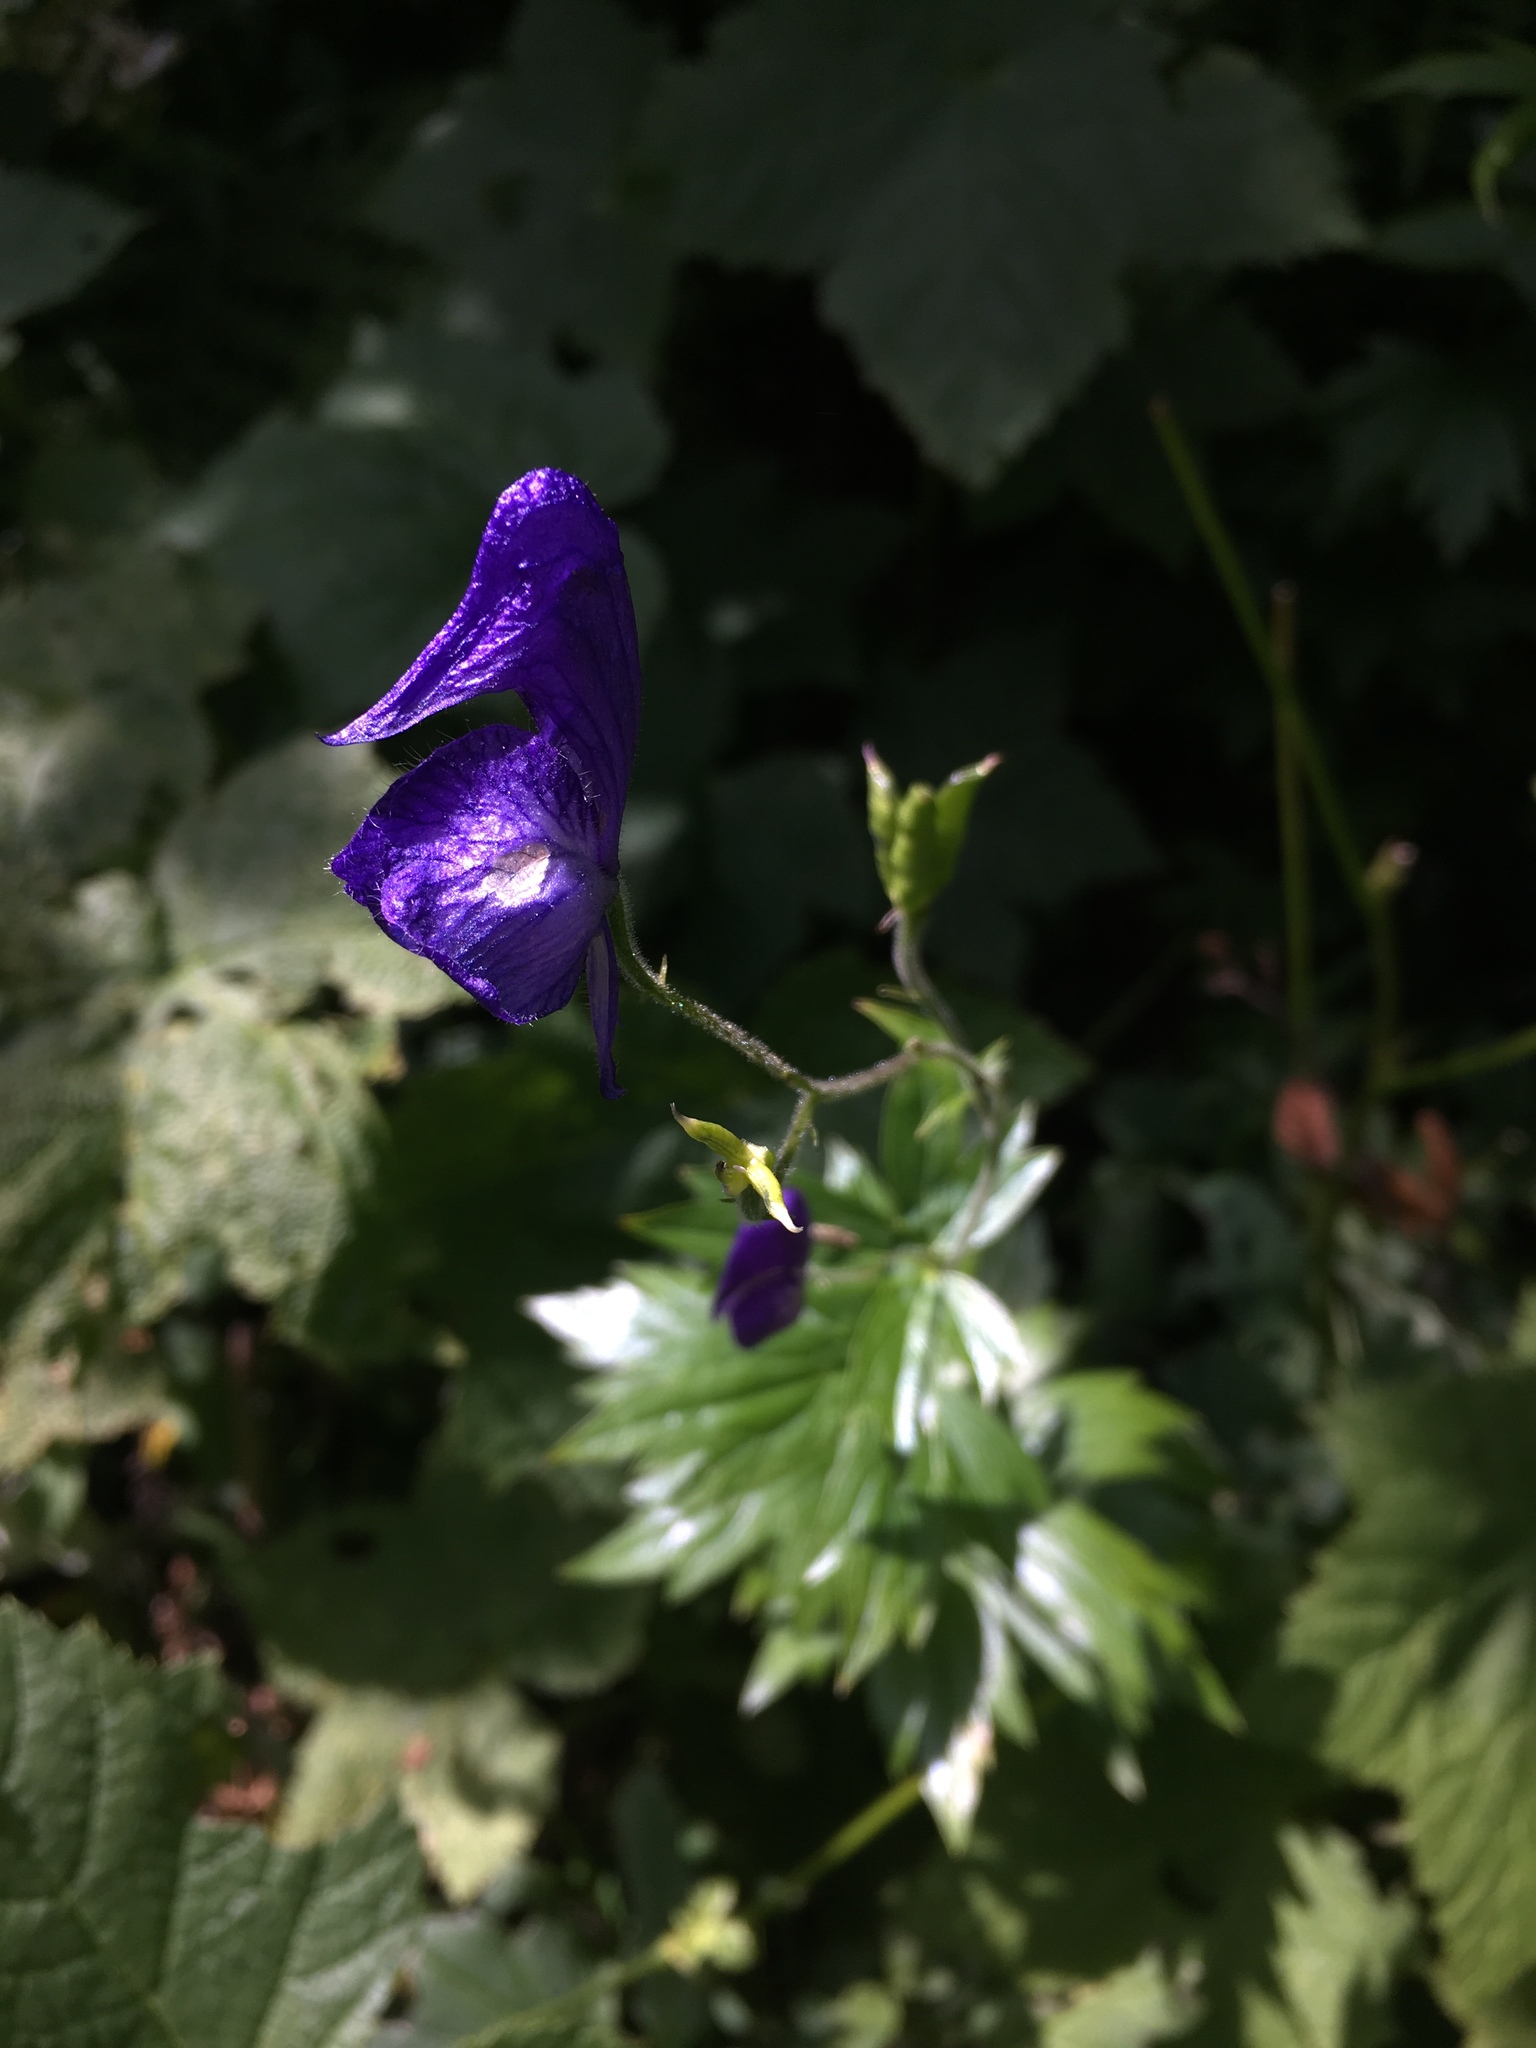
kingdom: Plantae
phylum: Tracheophyta
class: Magnoliopsida
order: Ranunculales
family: Ranunculaceae
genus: Aconitum
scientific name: Aconitum columbianum
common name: Columbia aconite
